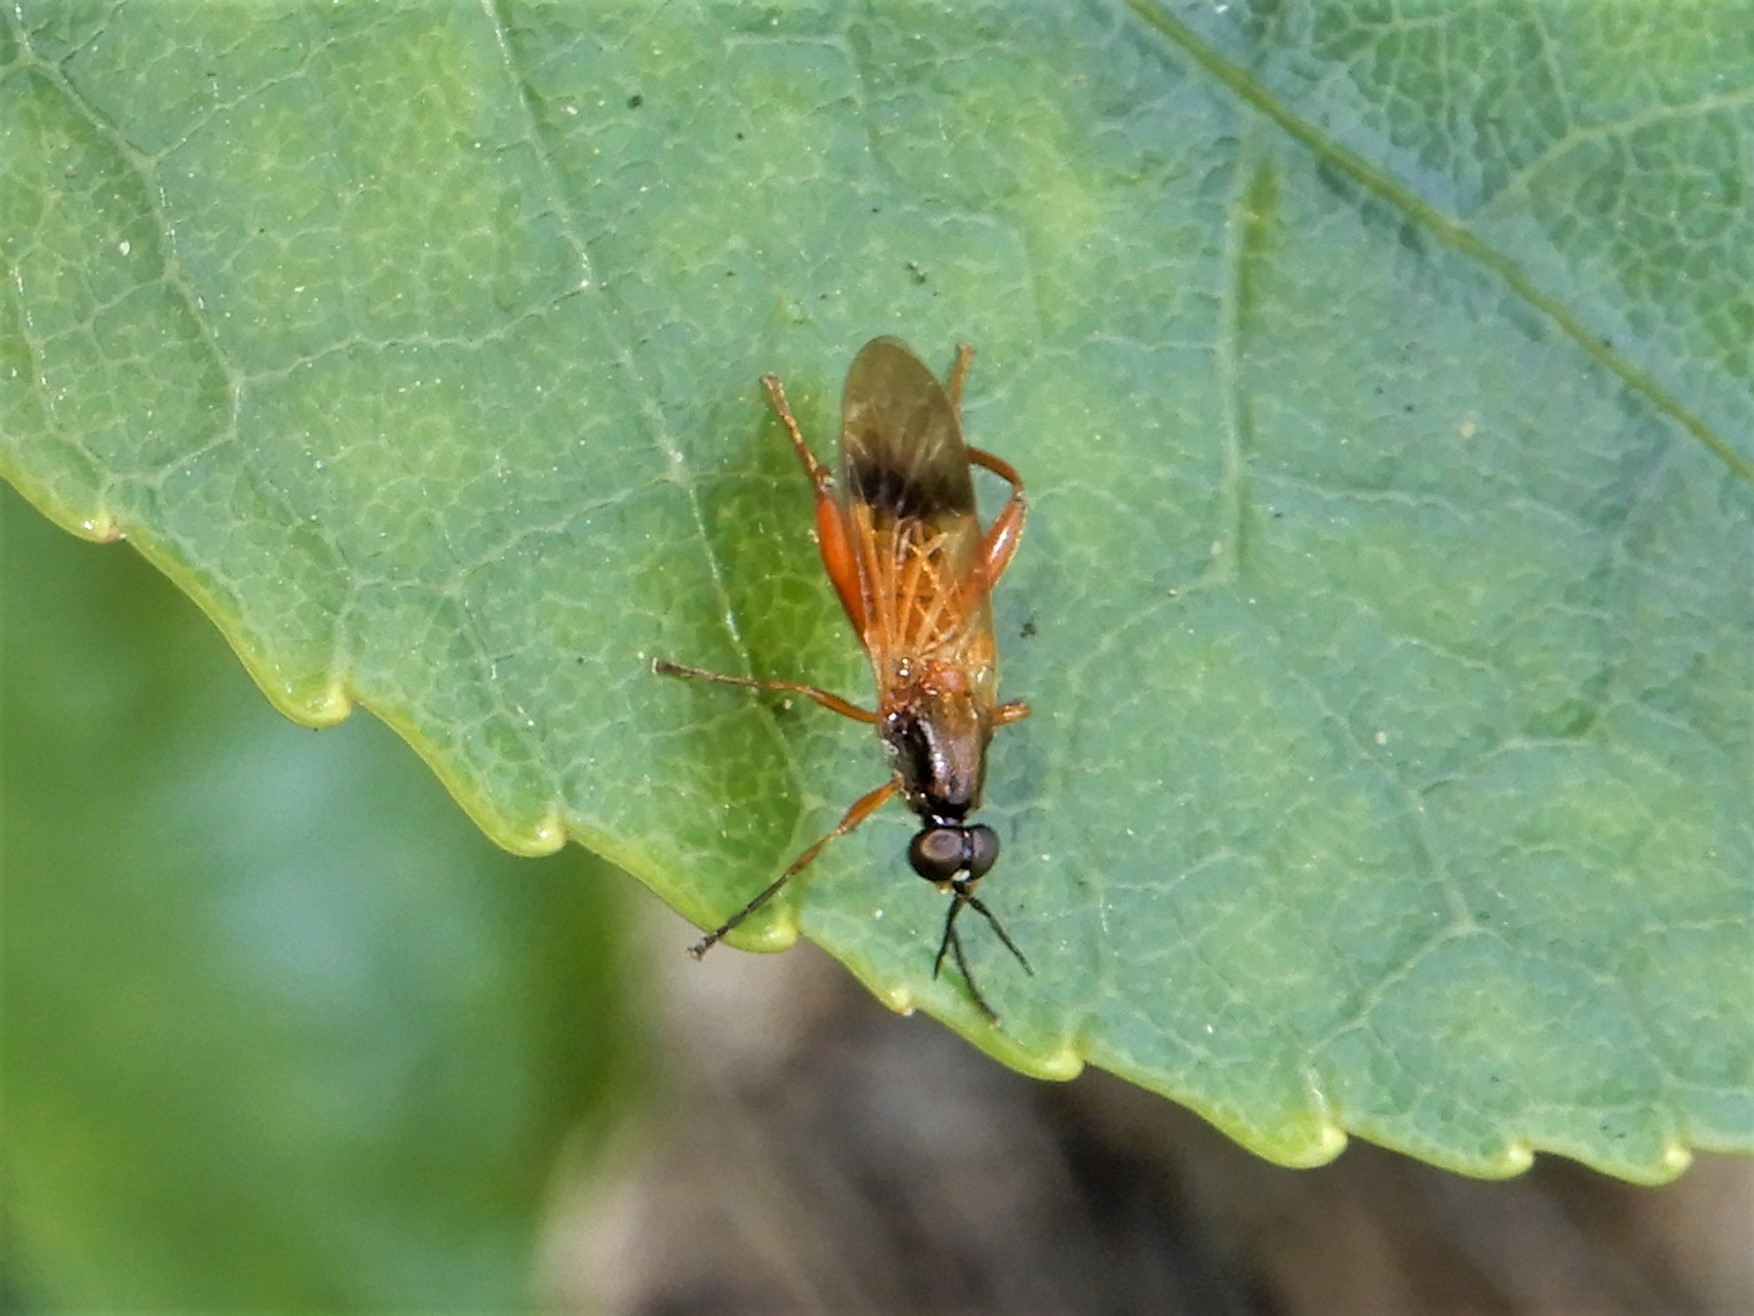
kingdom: Animalia
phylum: Arthropoda
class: Insecta
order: Diptera
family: Stratiomyidae
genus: Benhamyia
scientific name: Benhamyia apicalis
